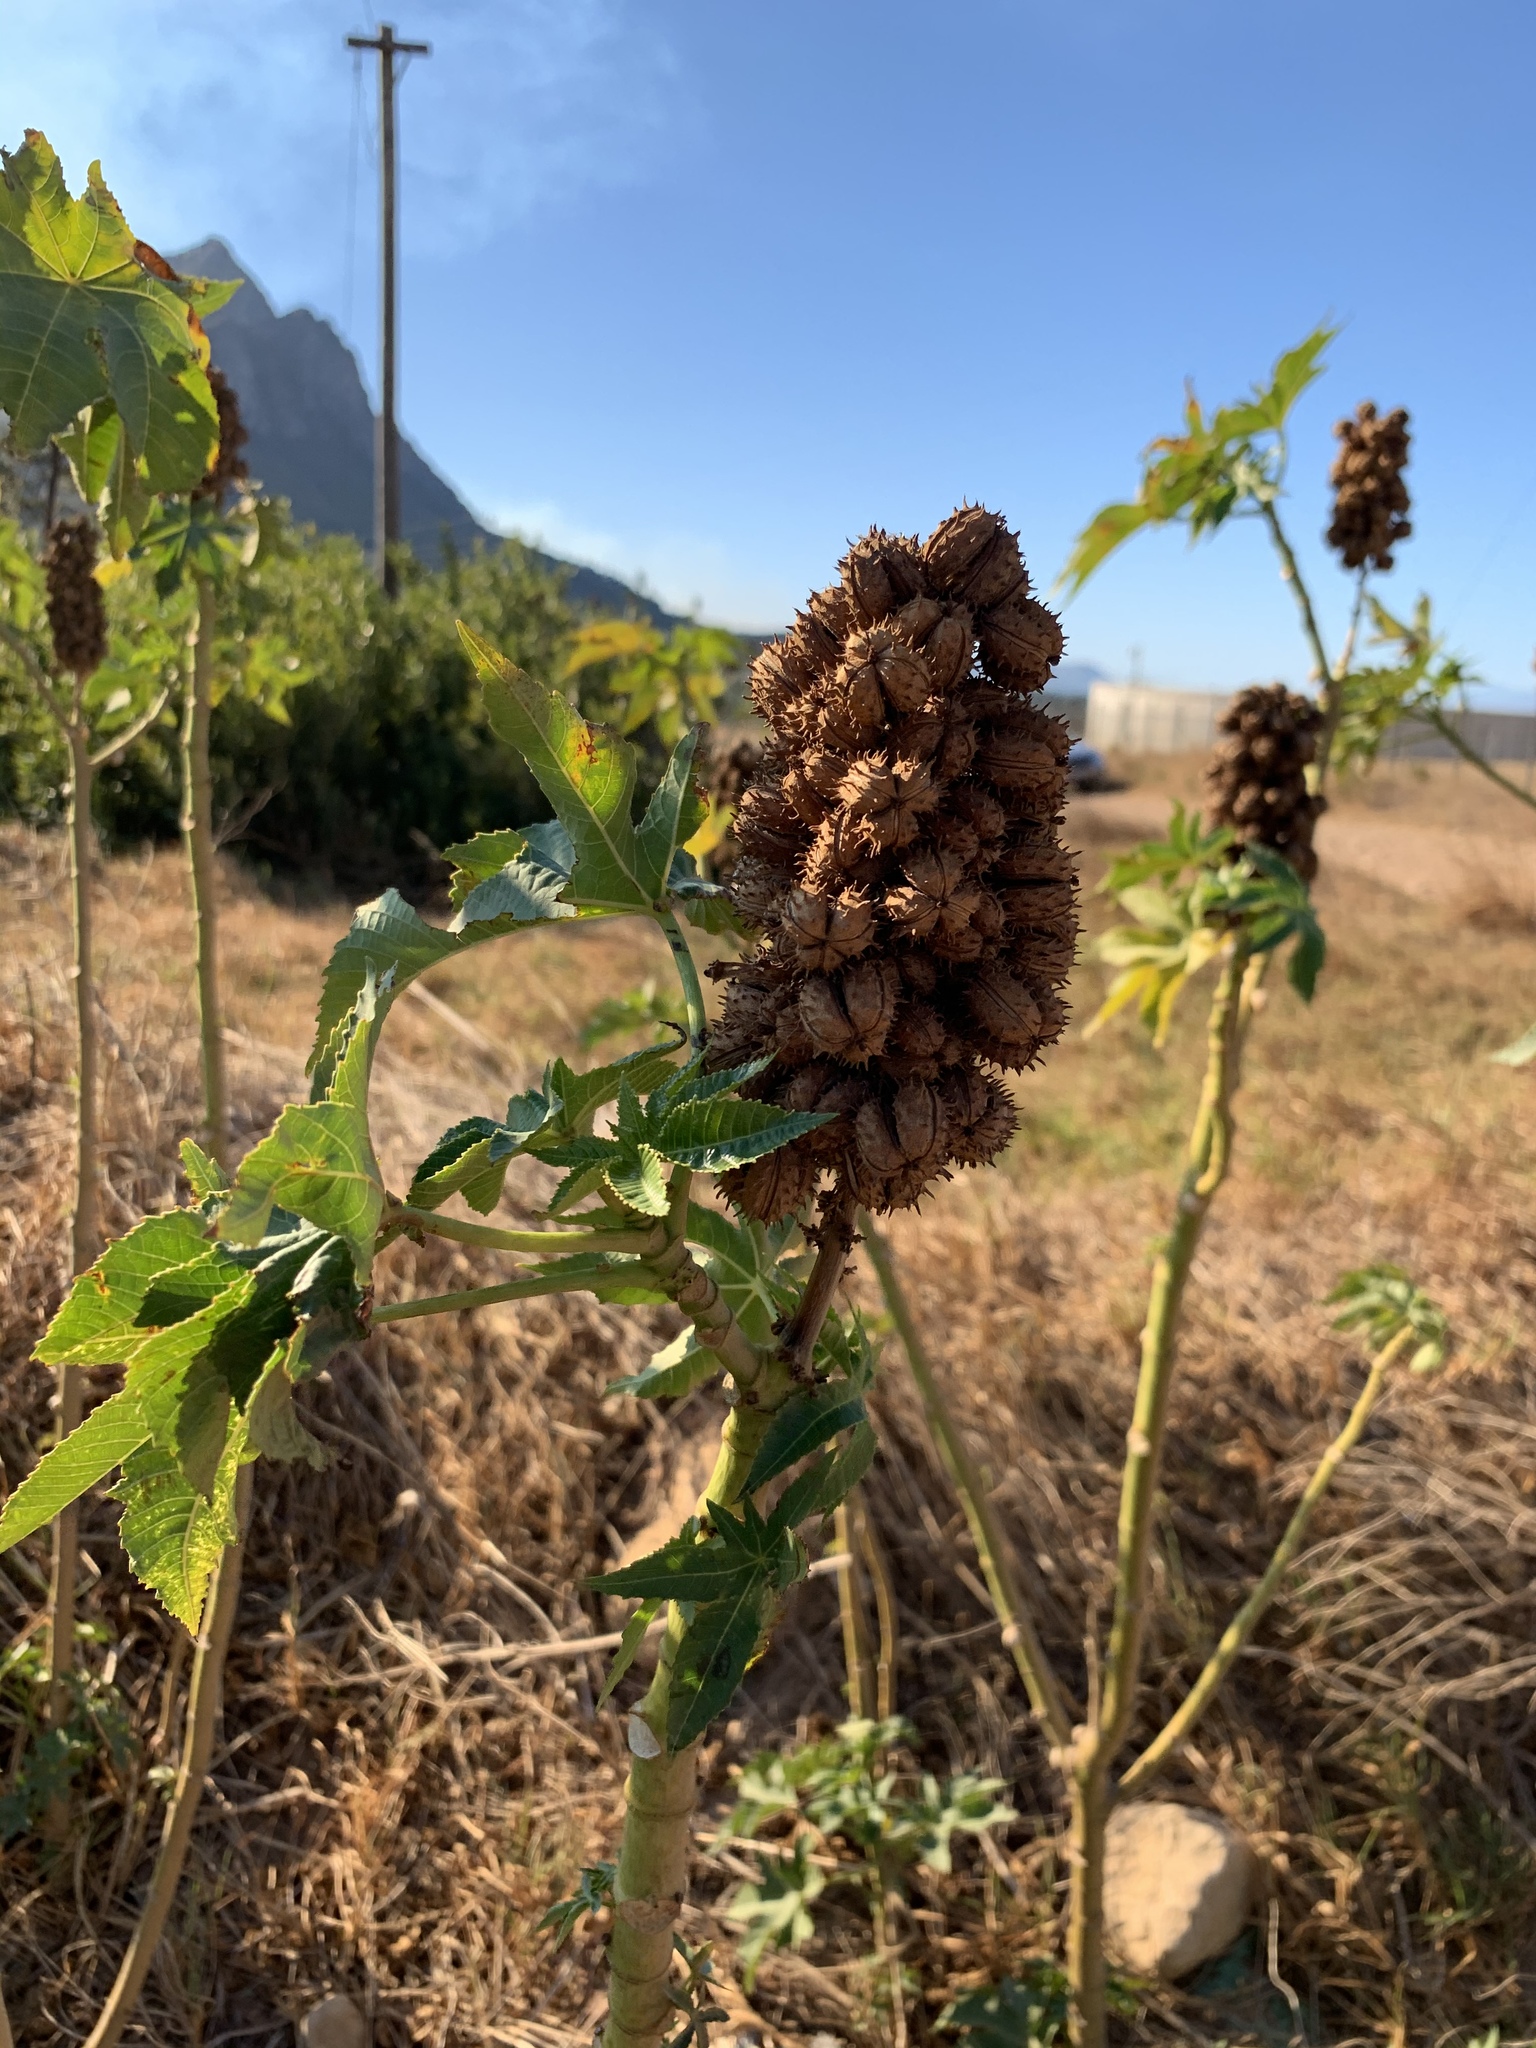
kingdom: Plantae
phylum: Tracheophyta
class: Magnoliopsida
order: Malpighiales
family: Euphorbiaceae
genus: Ricinus
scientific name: Ricinus communis
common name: Castor-oil-plant
